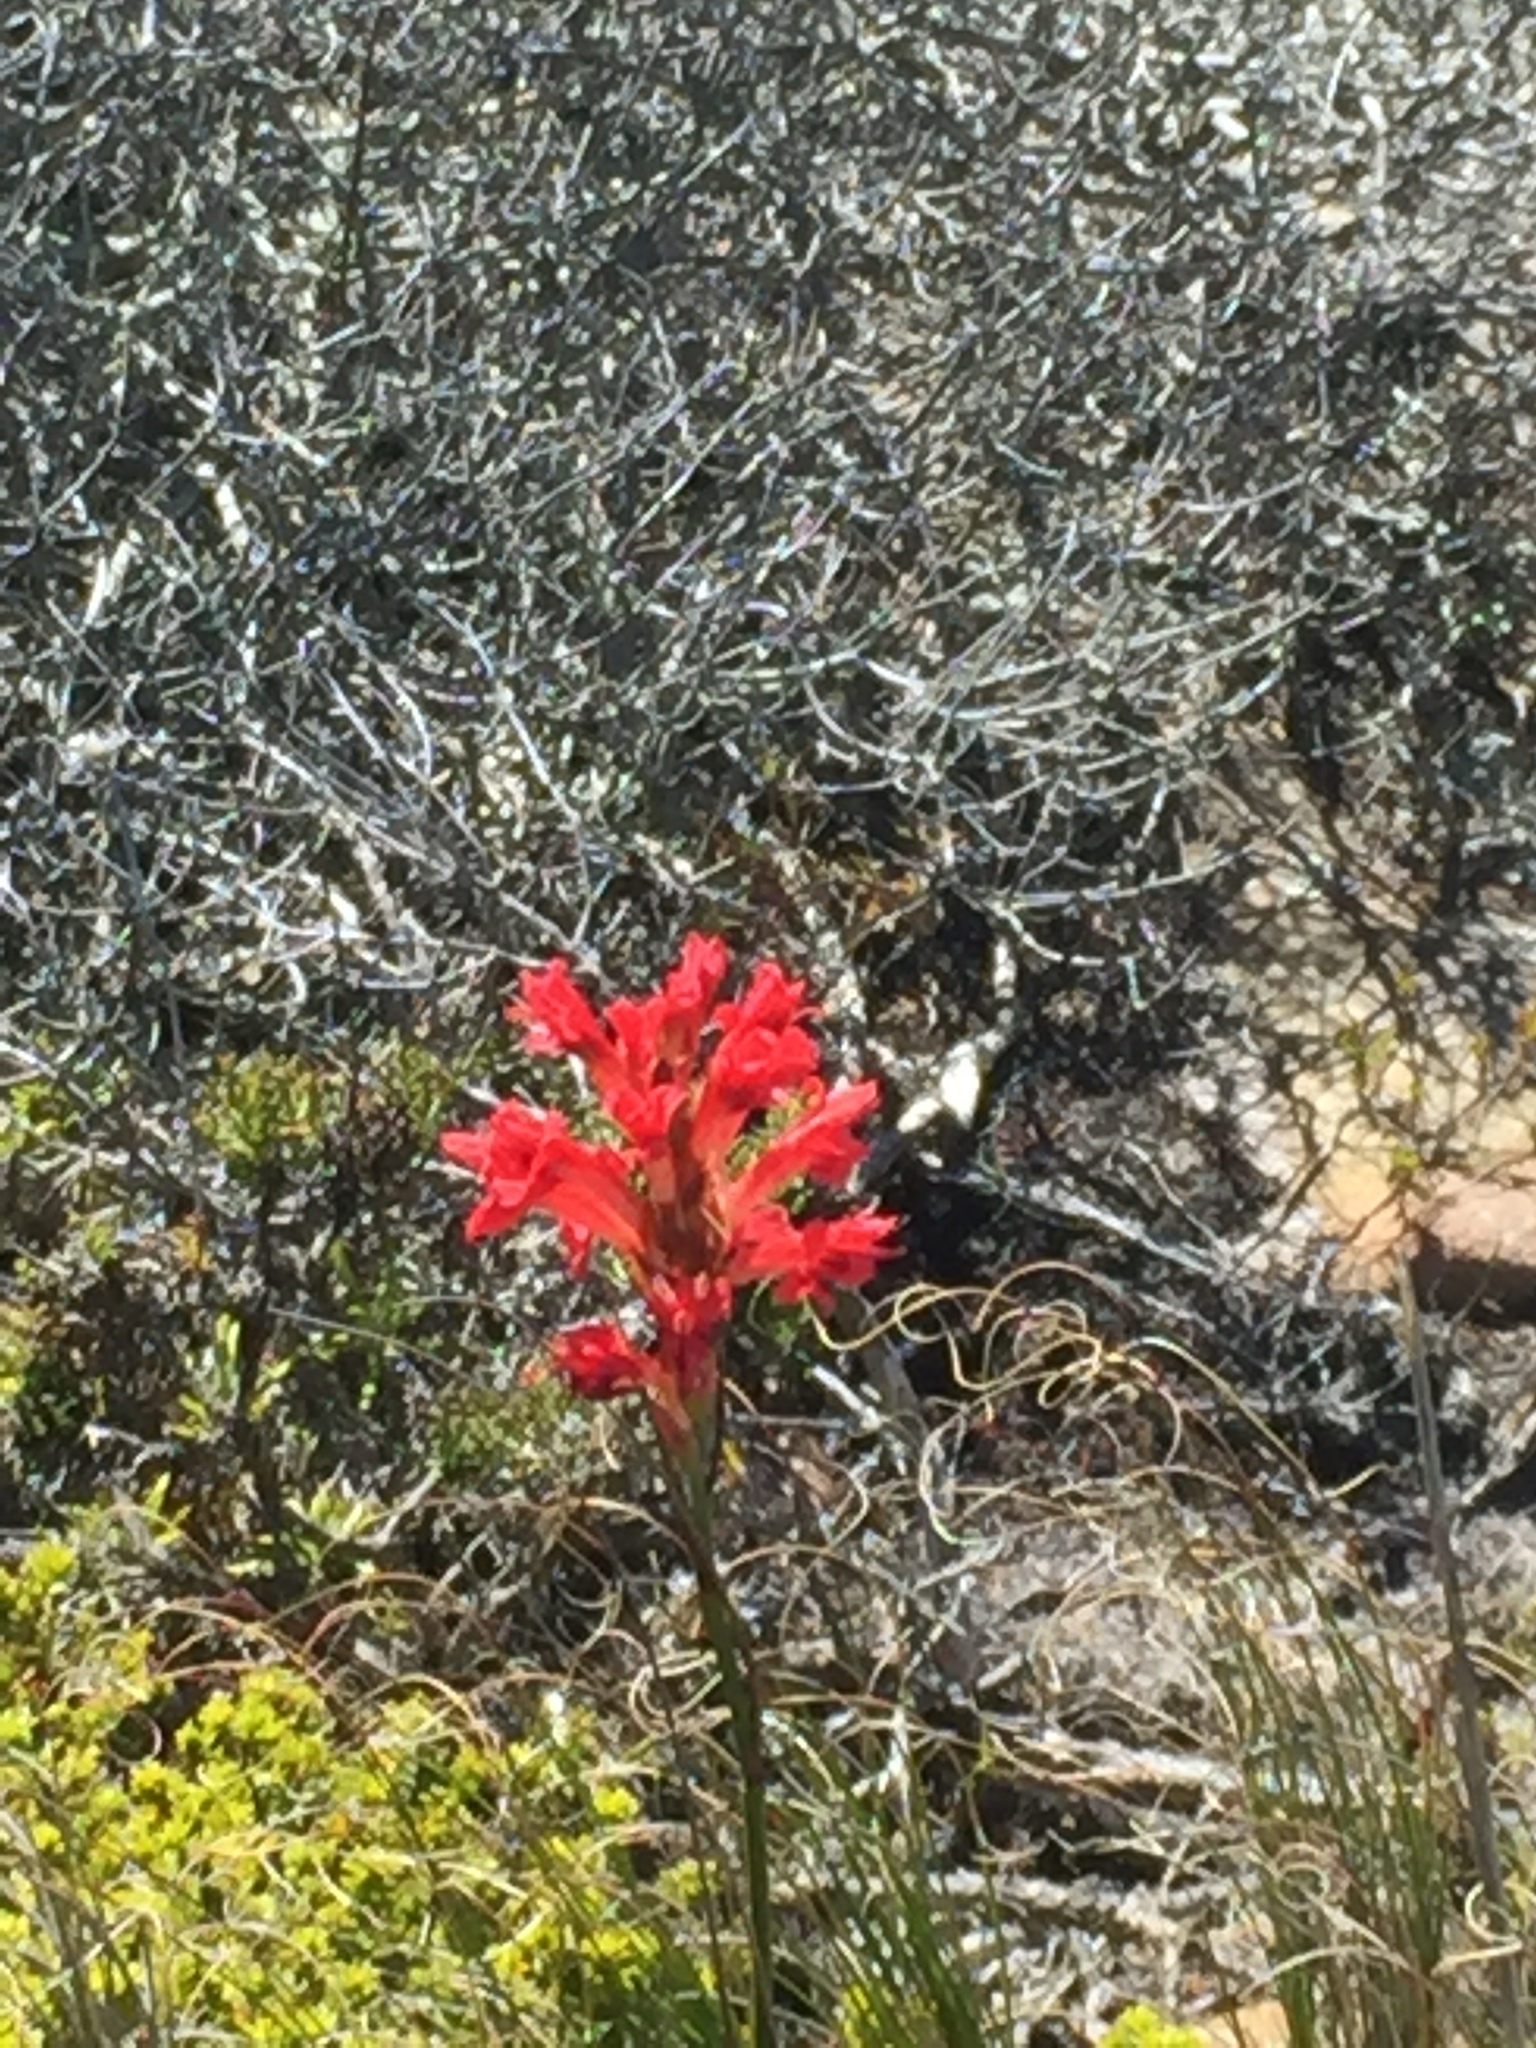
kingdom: Plantae
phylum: Tracheophyta
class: Liliopsida
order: Asparagales
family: Iridaceae
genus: Tritoniopsis
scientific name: Tritoniopsis triticea
